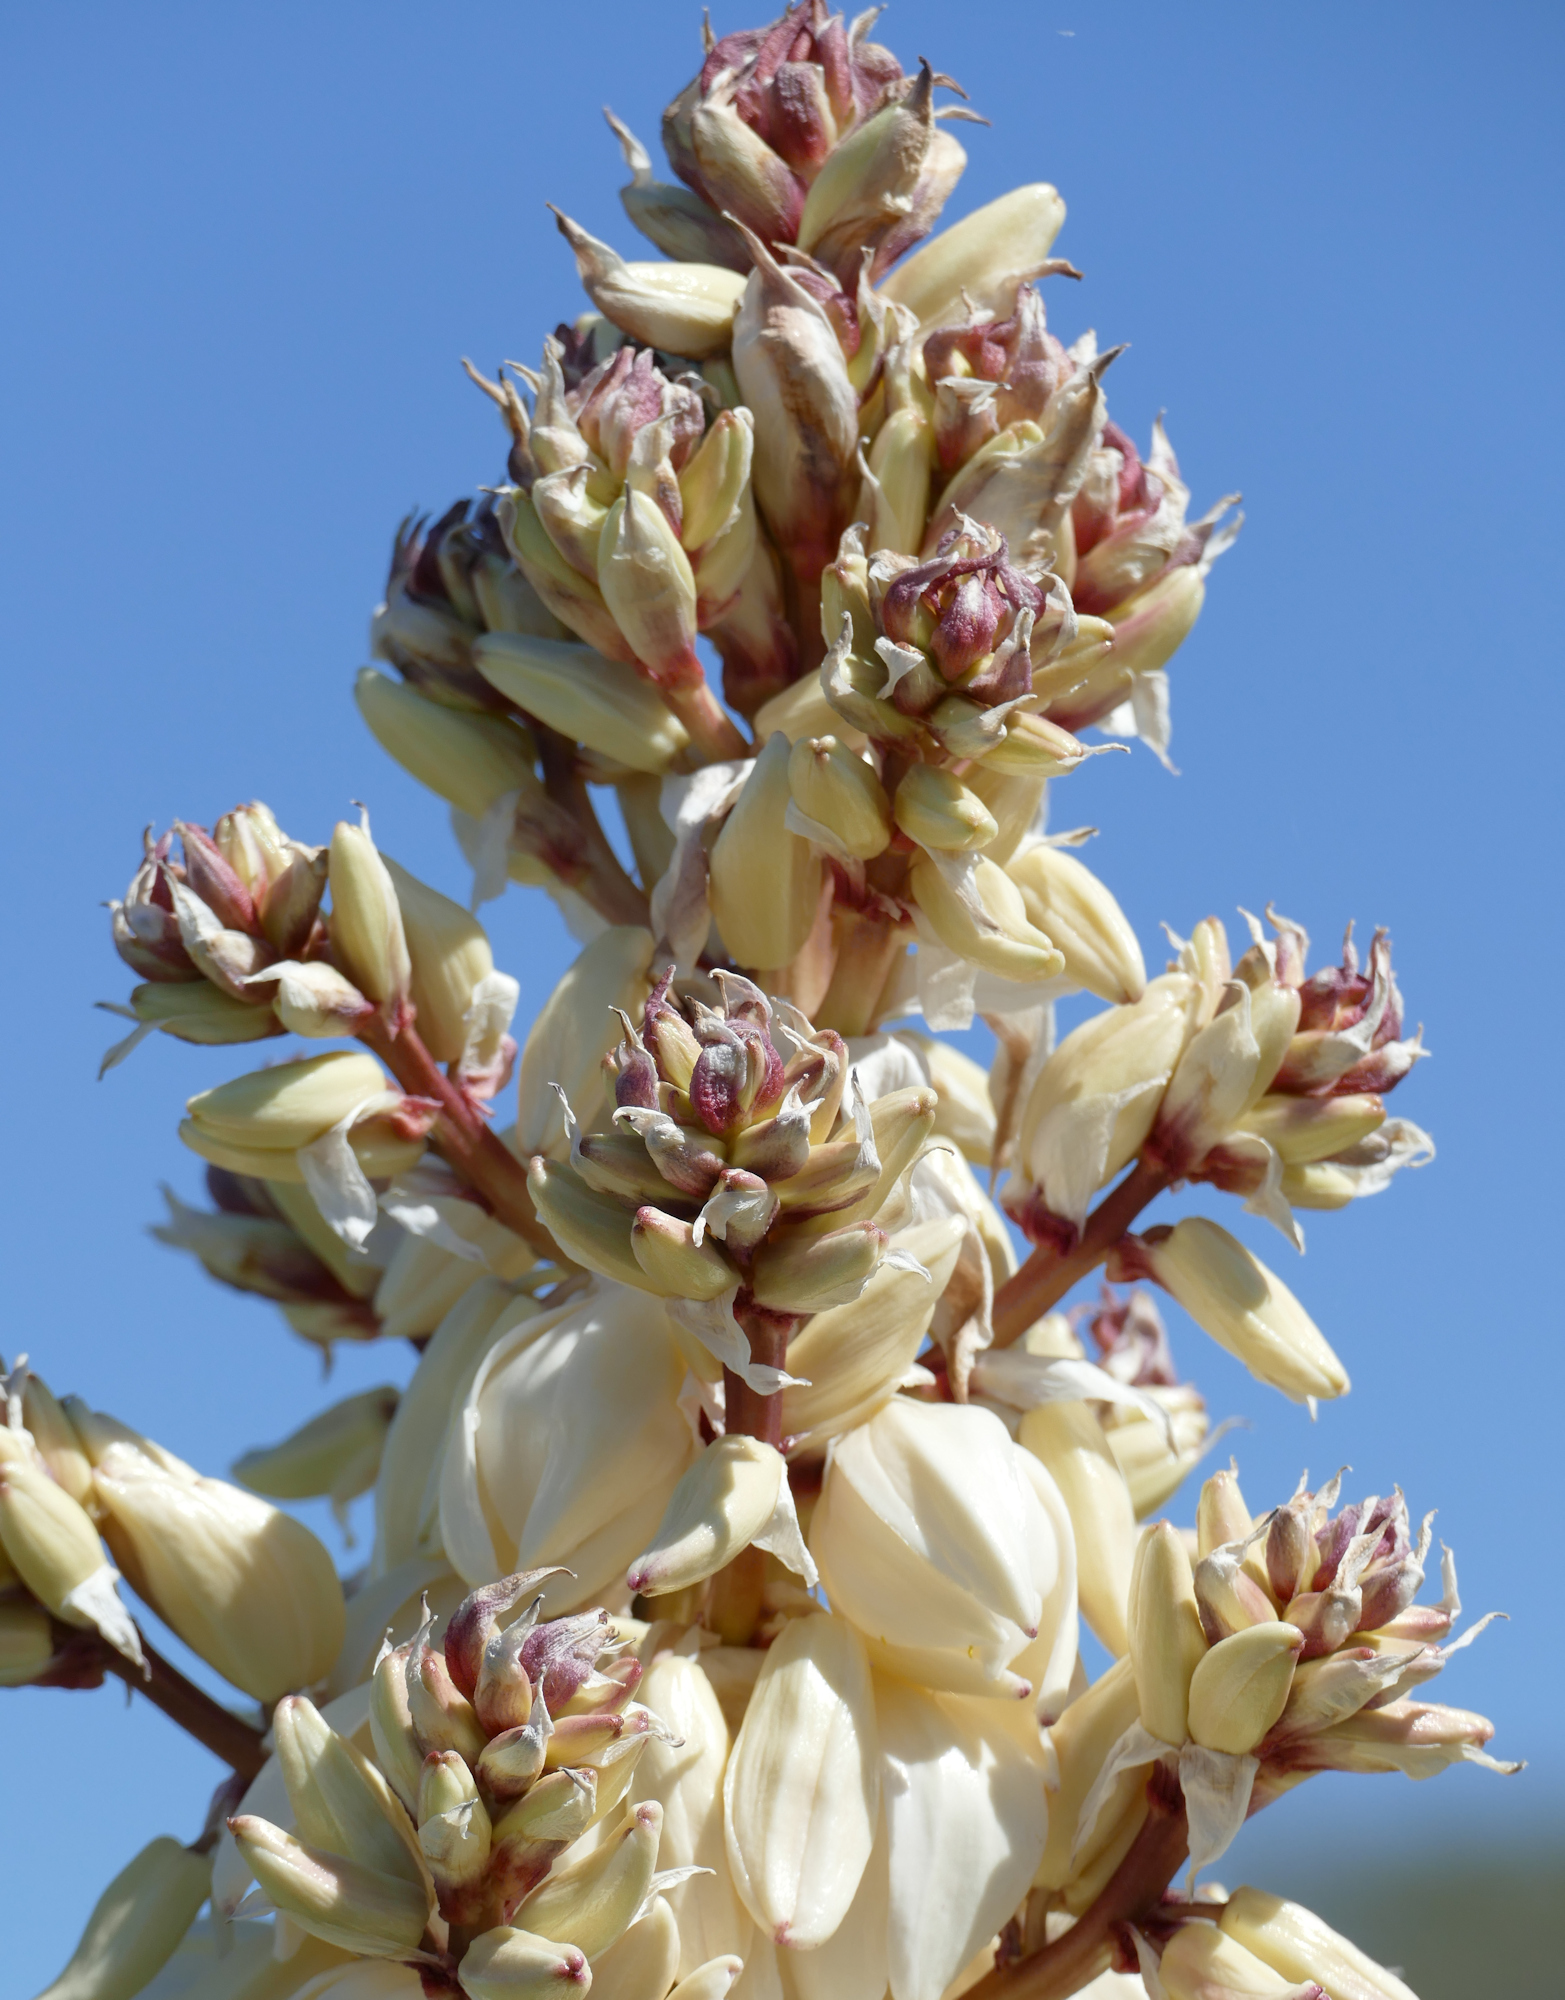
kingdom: Plantae
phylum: Tracheophyta
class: Liliopsida
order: Asparagales
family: Asparagaceae
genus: Yucca
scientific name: Yucca treculiana
